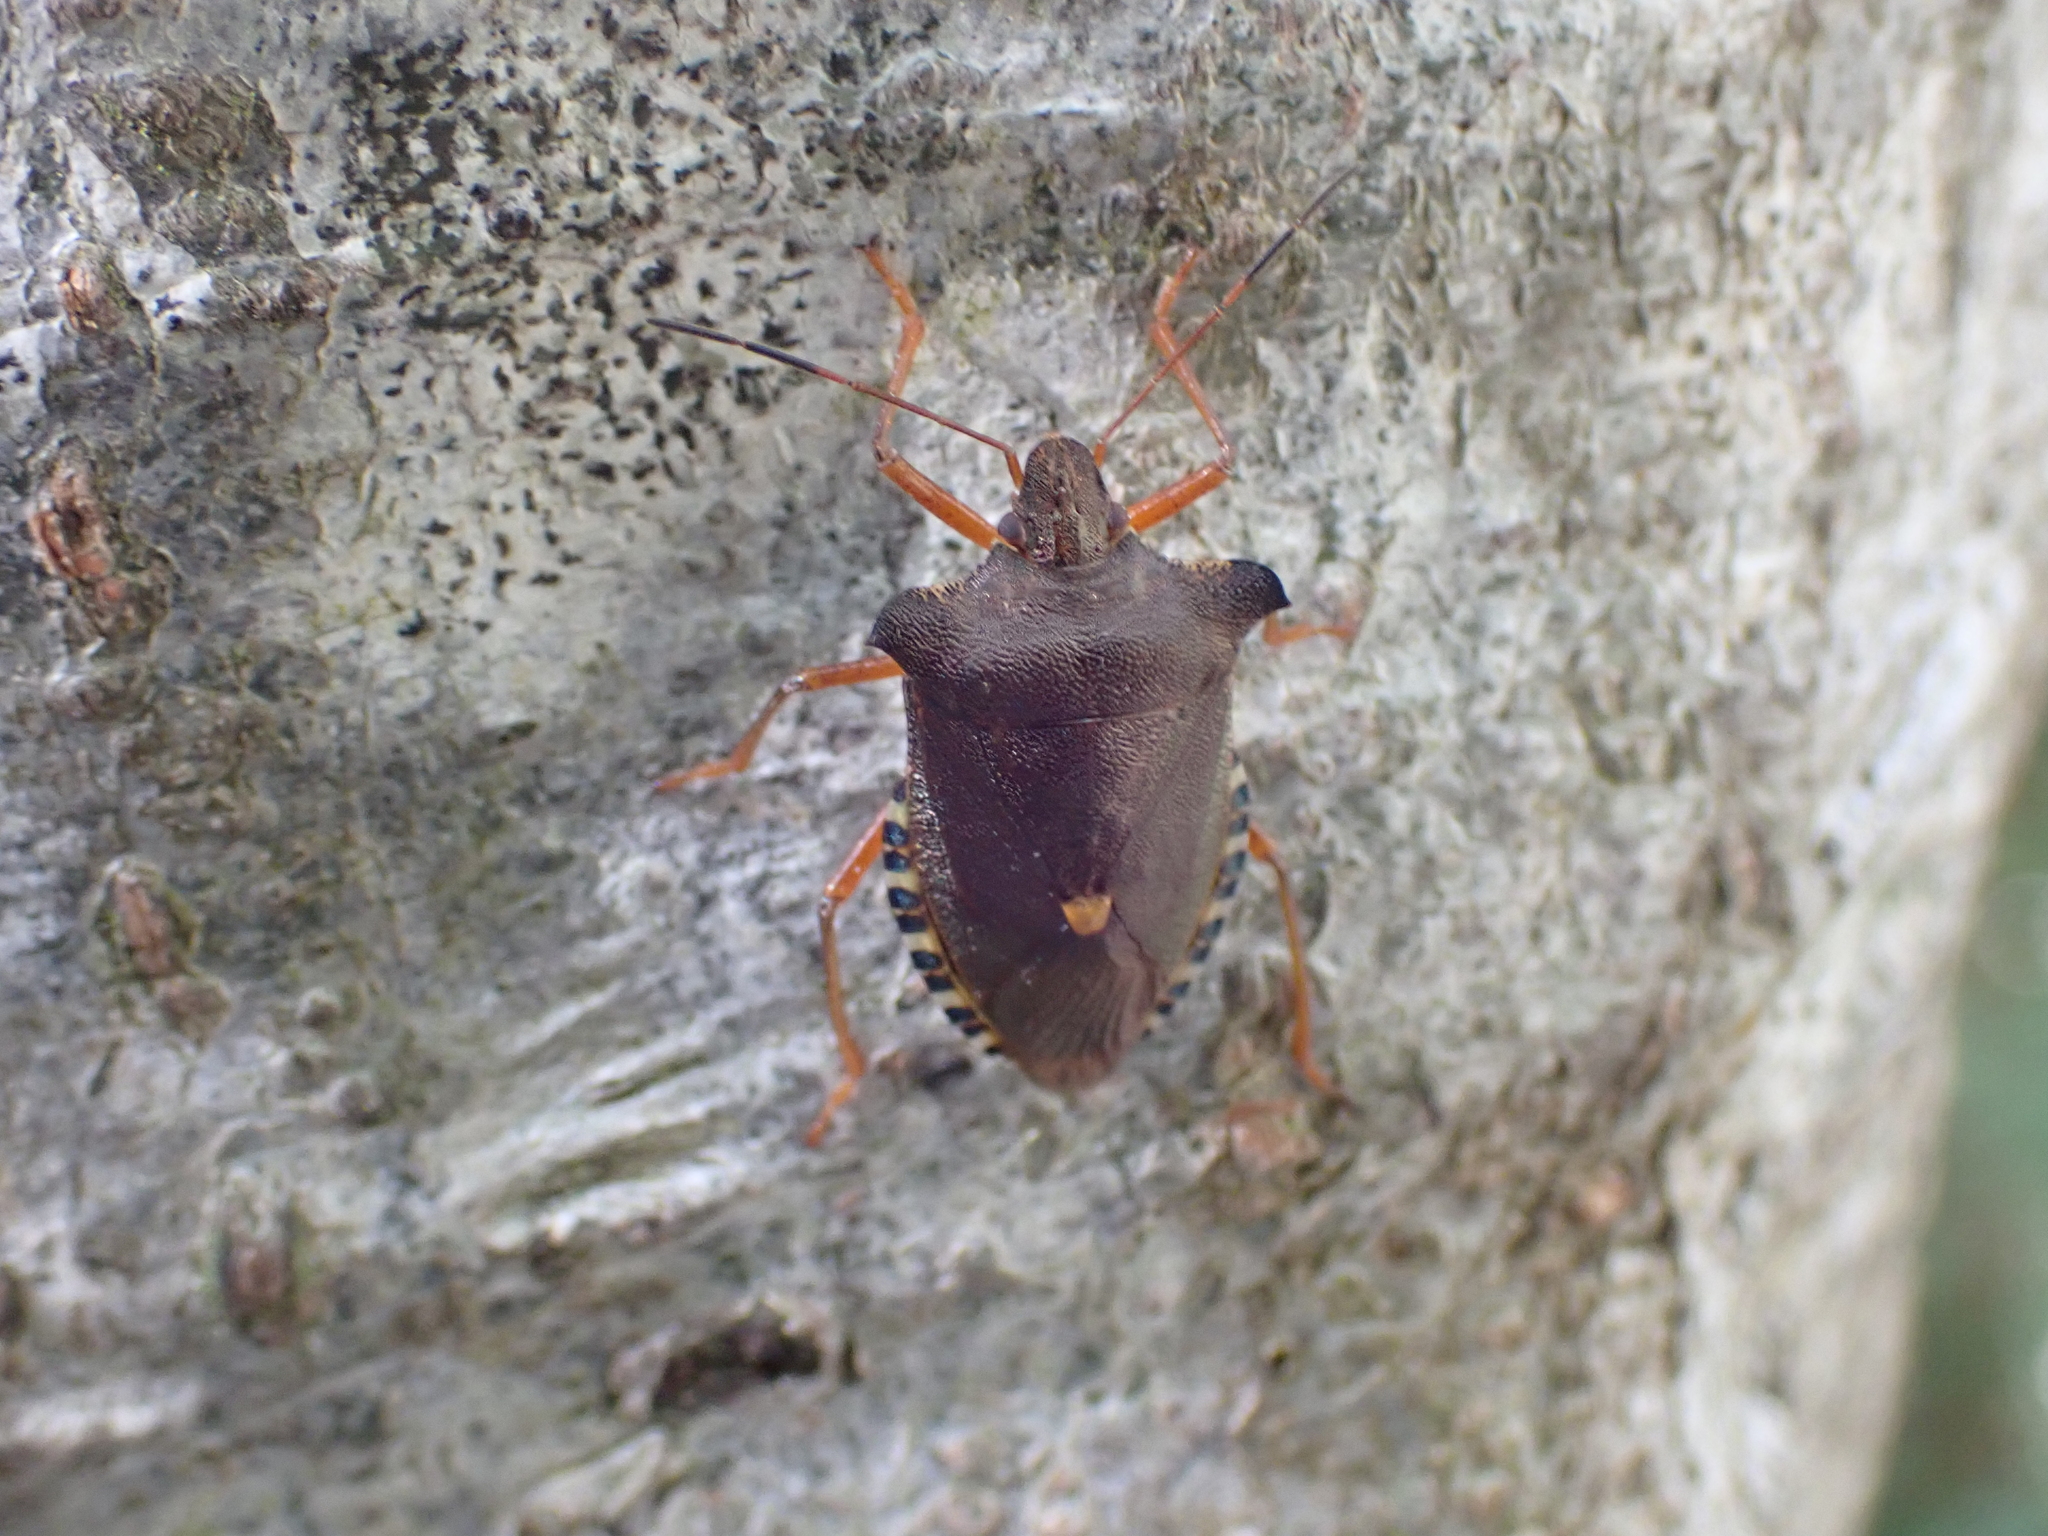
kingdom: Animalia
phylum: Arthropoda
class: Insecta
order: Hemiptera
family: Pentatomidae
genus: Pentatoma
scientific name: Pentatoma rufipes
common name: Forest bug
